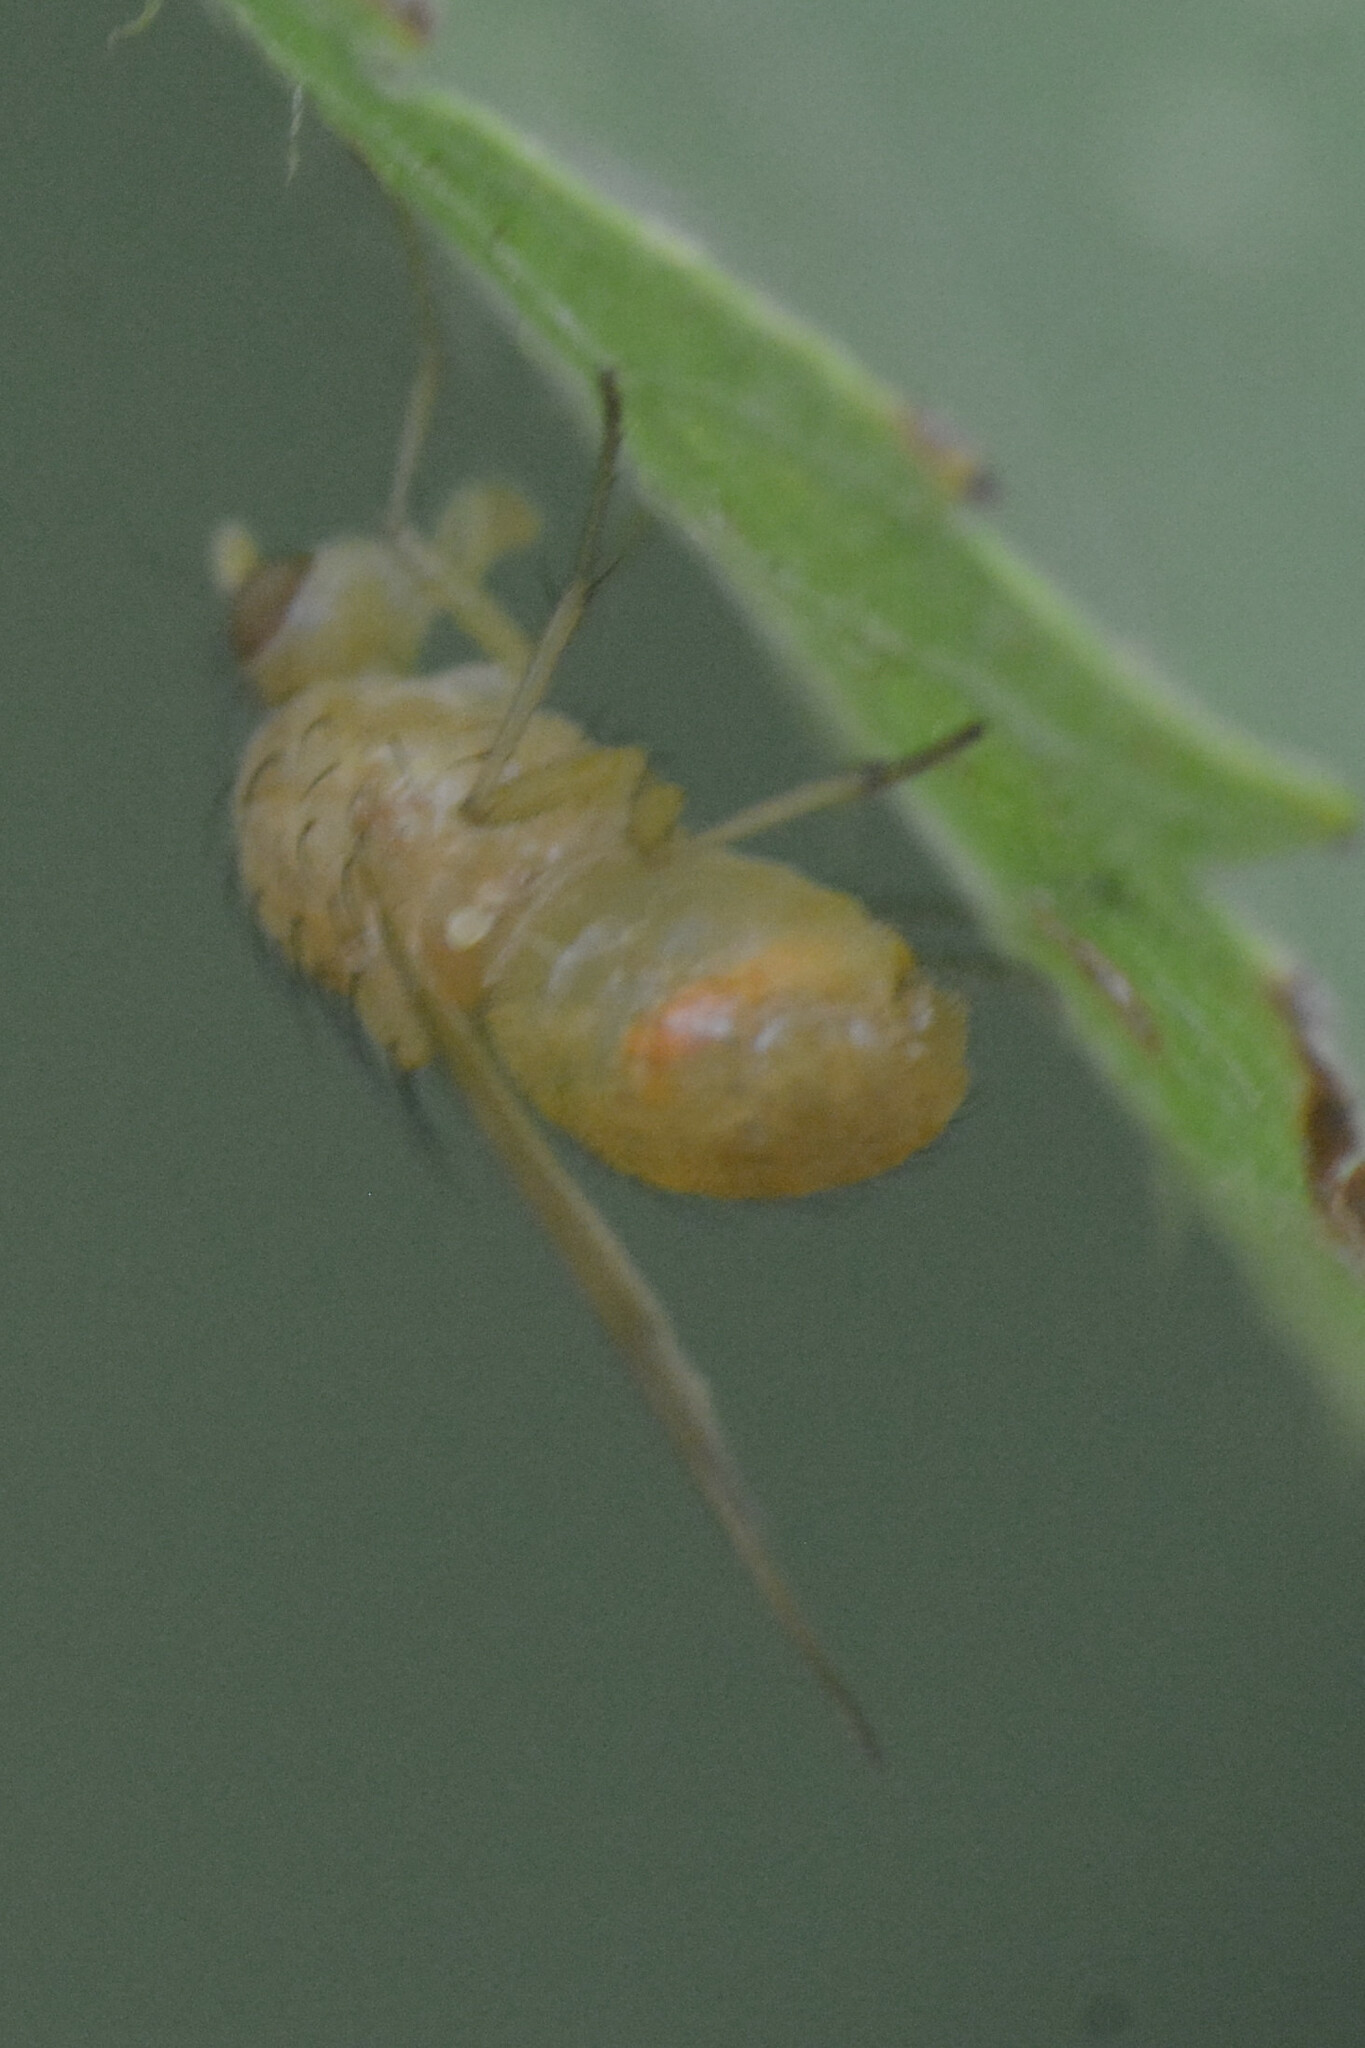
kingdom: Animalia
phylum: Arthropoda
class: Insecta
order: Diptera
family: Lauxaniidae
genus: Tricholauxania
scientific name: Tricholauxania praeusta
